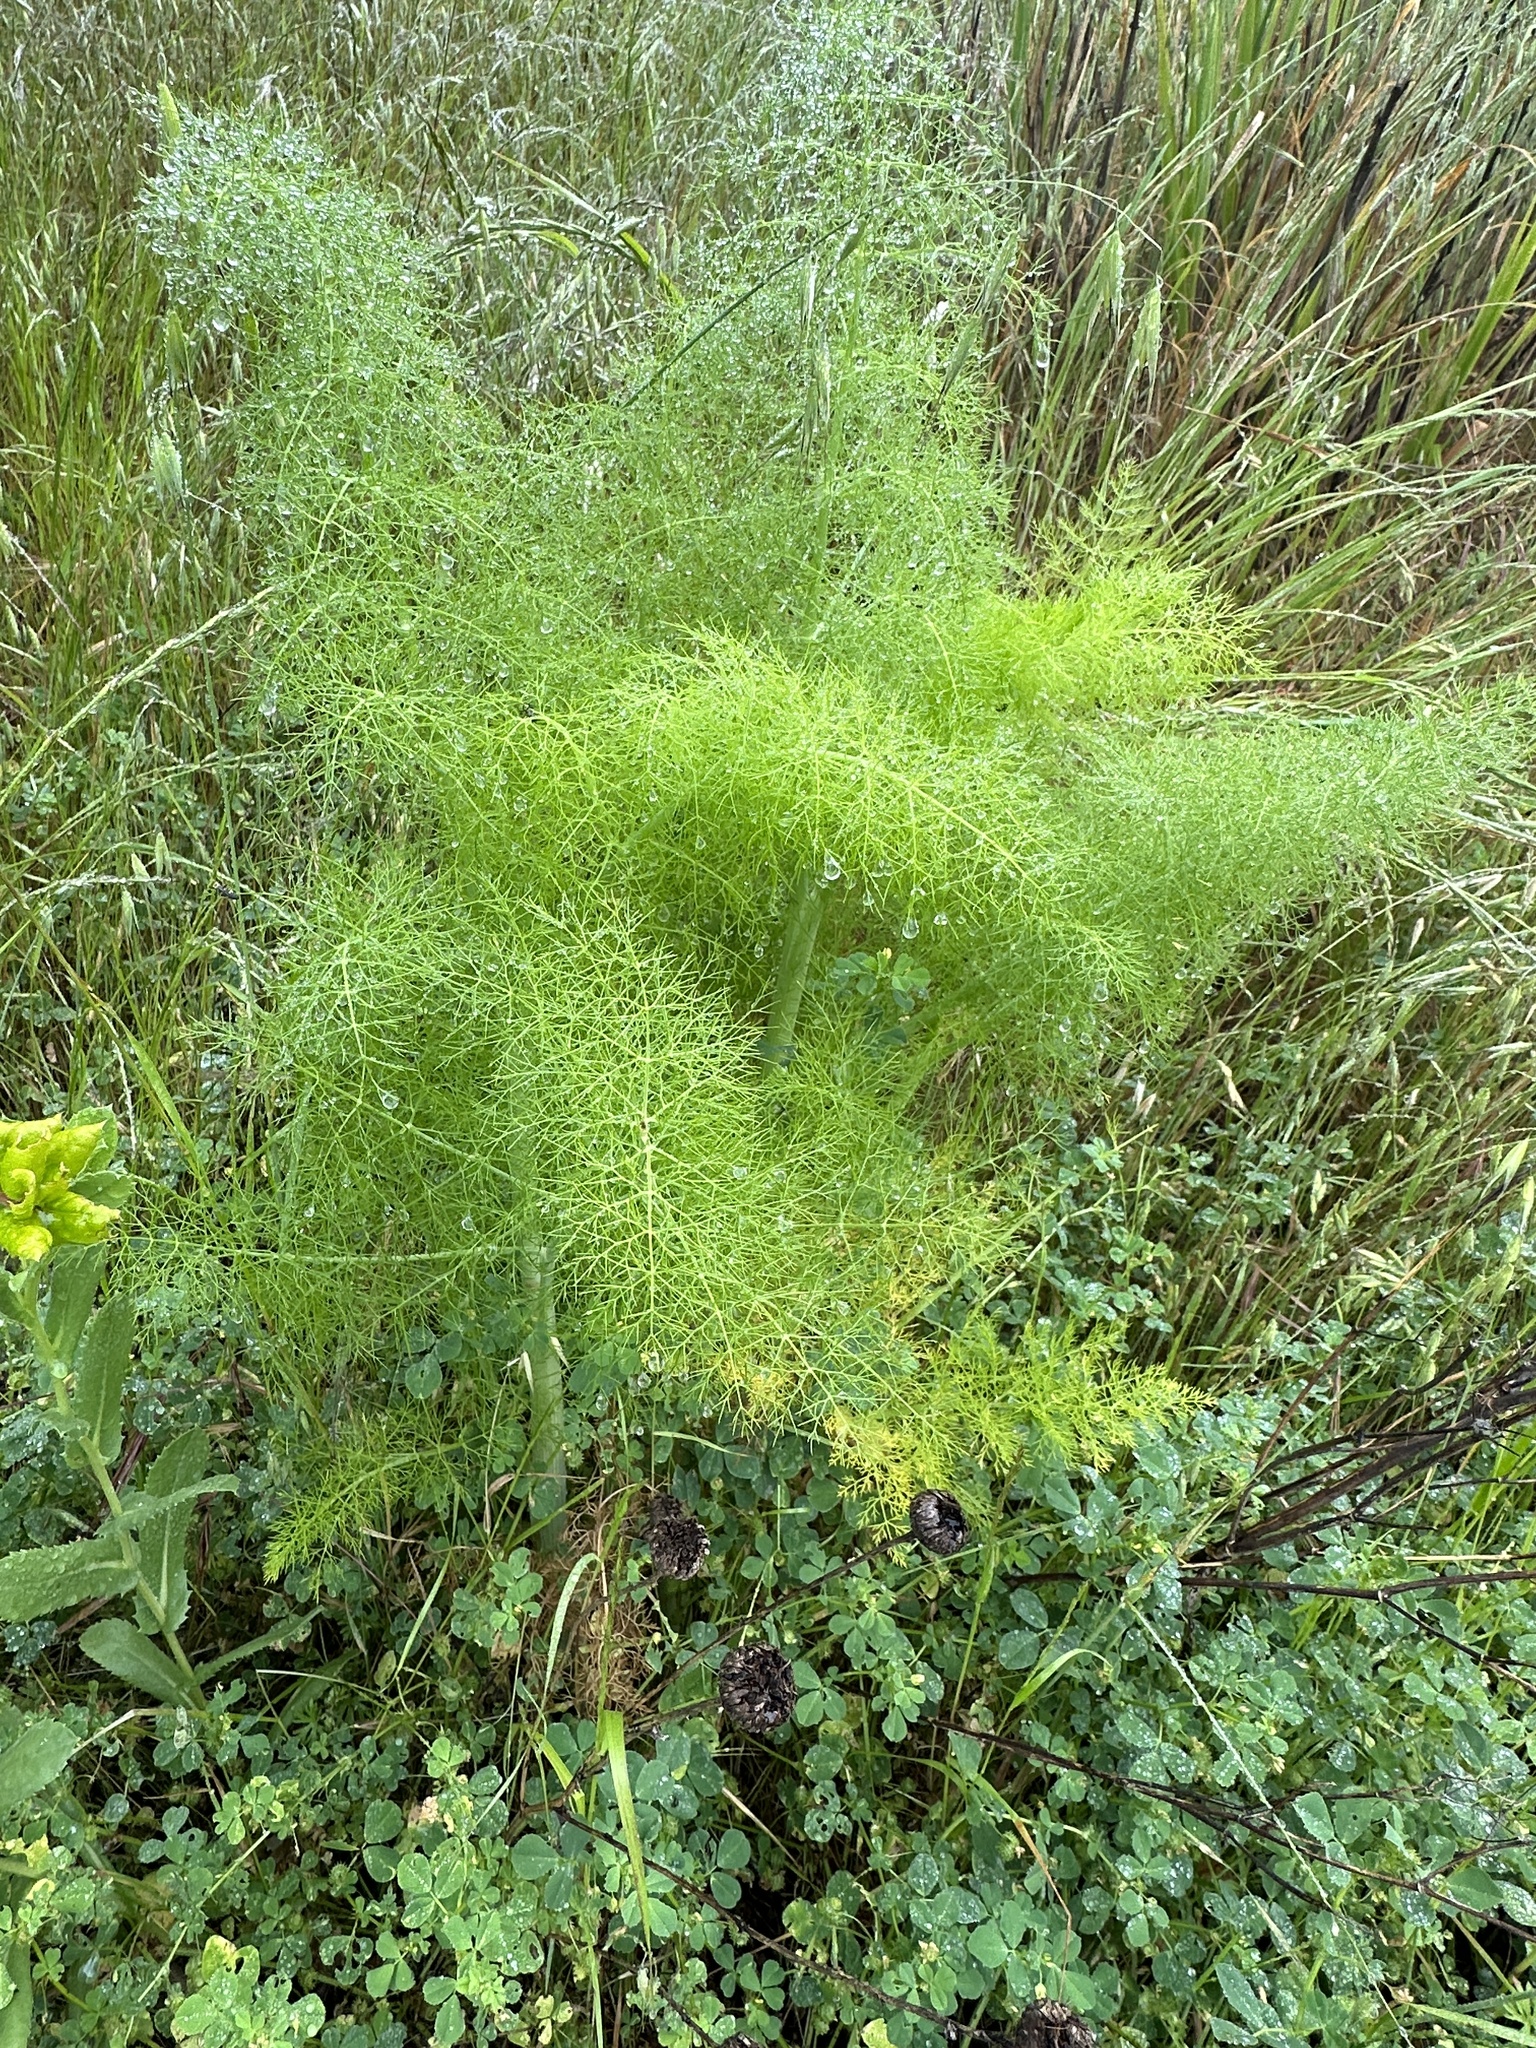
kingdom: Plantae
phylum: Tracheophyta
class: Magnoliopsida
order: Apiales
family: Apiaceae
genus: Foeniculum
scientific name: Foeniculum vulgare
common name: Fennel
